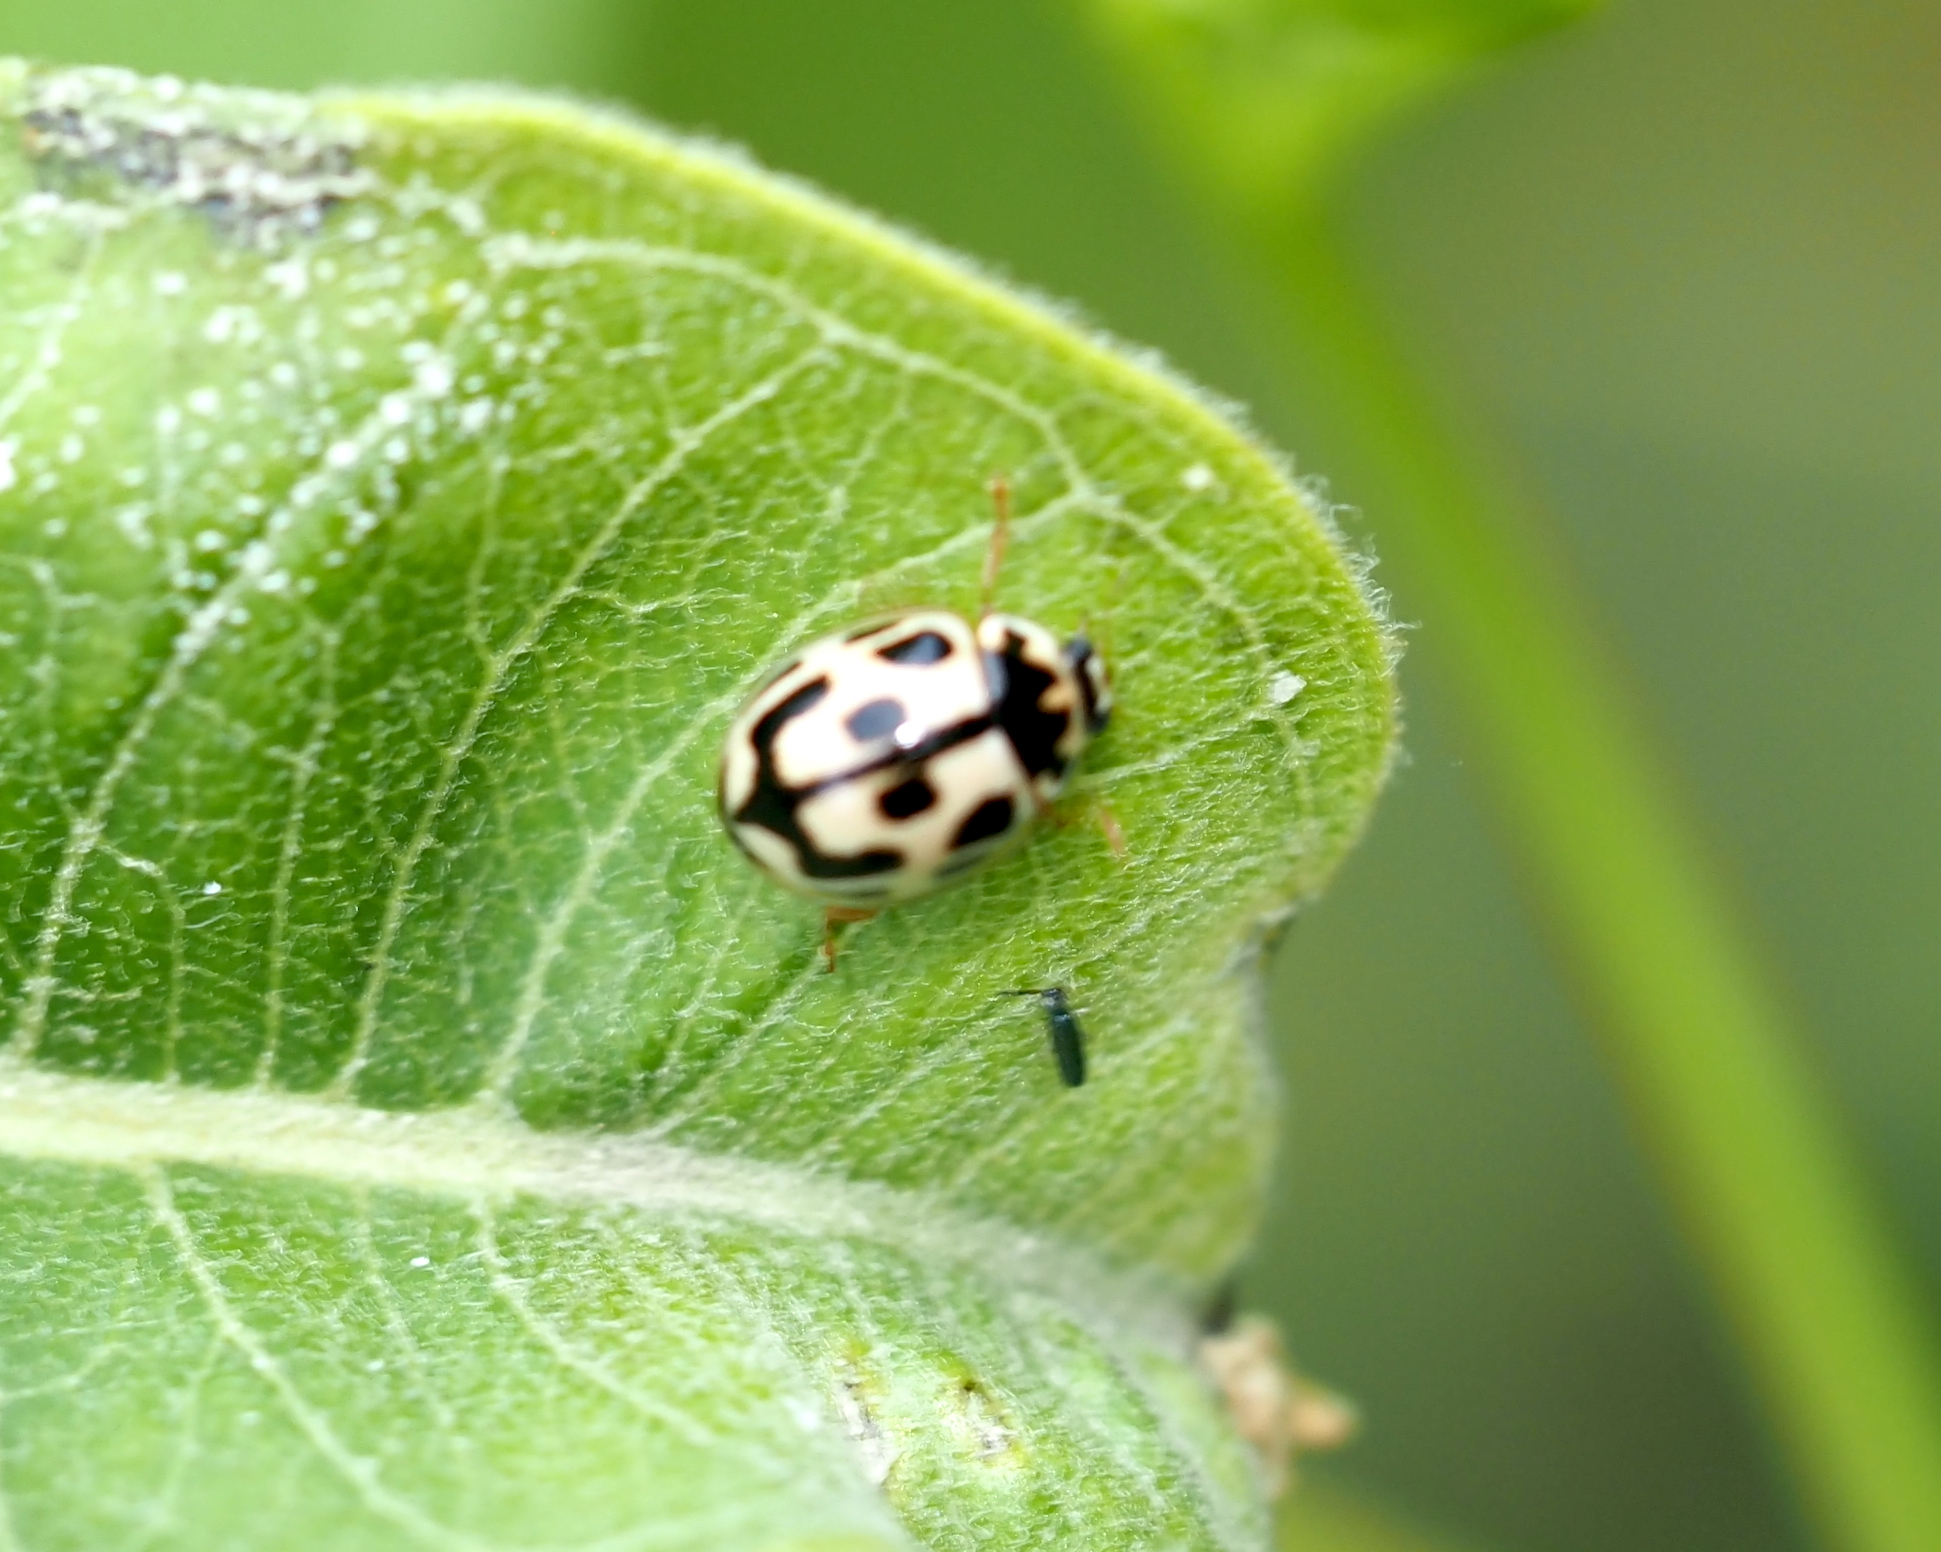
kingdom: Animalia
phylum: Arthropoda
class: Insecta
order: Coleoptera
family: Coccinellidae
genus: Propylaea
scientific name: Propylaea quatuordecimpunctata
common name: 14-spotted ladybird beetle
